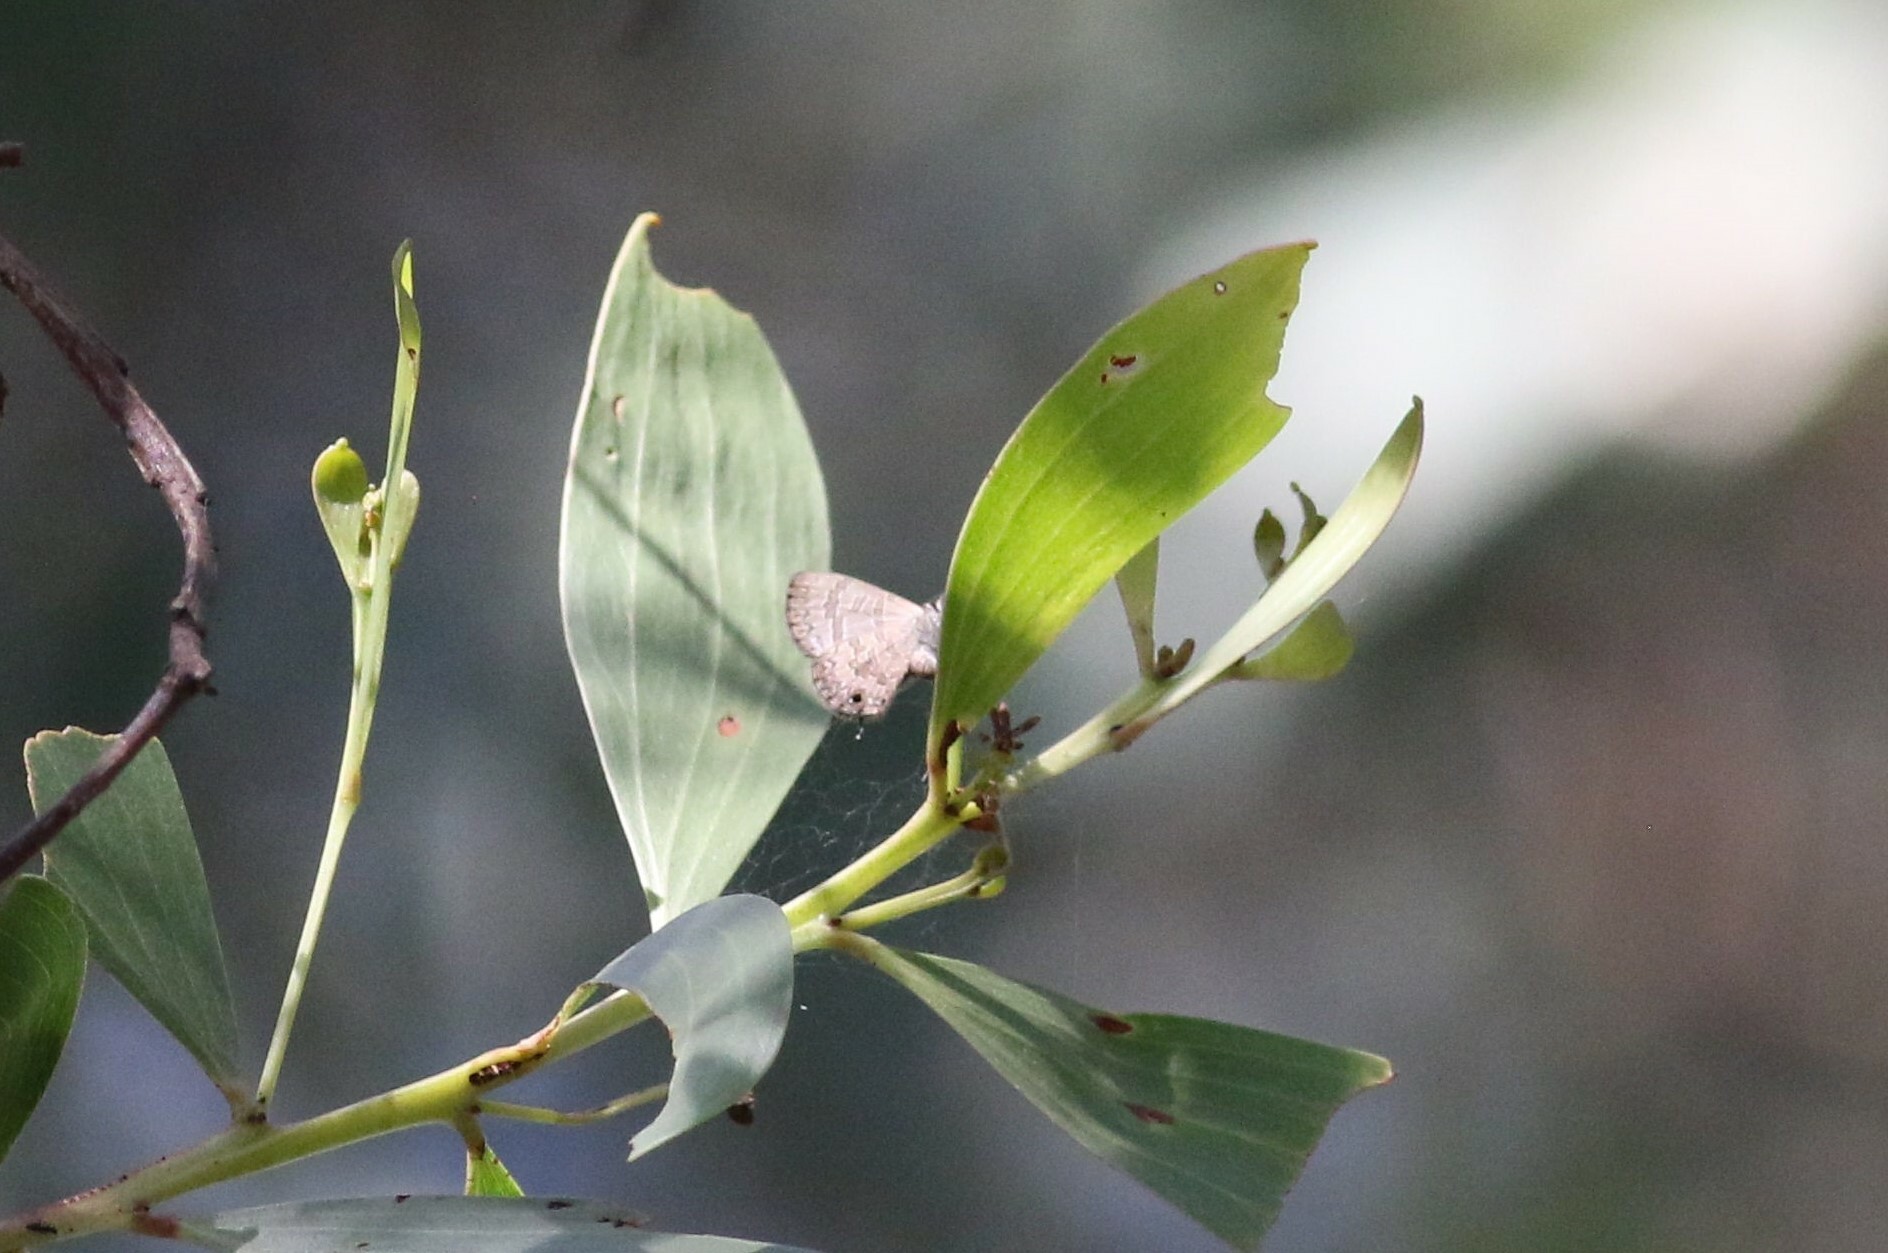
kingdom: Animalia
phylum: Arthropoda
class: Insecta
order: Lepidoptera
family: Lycaenidae
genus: Prosotas
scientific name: Prosotas felderi
